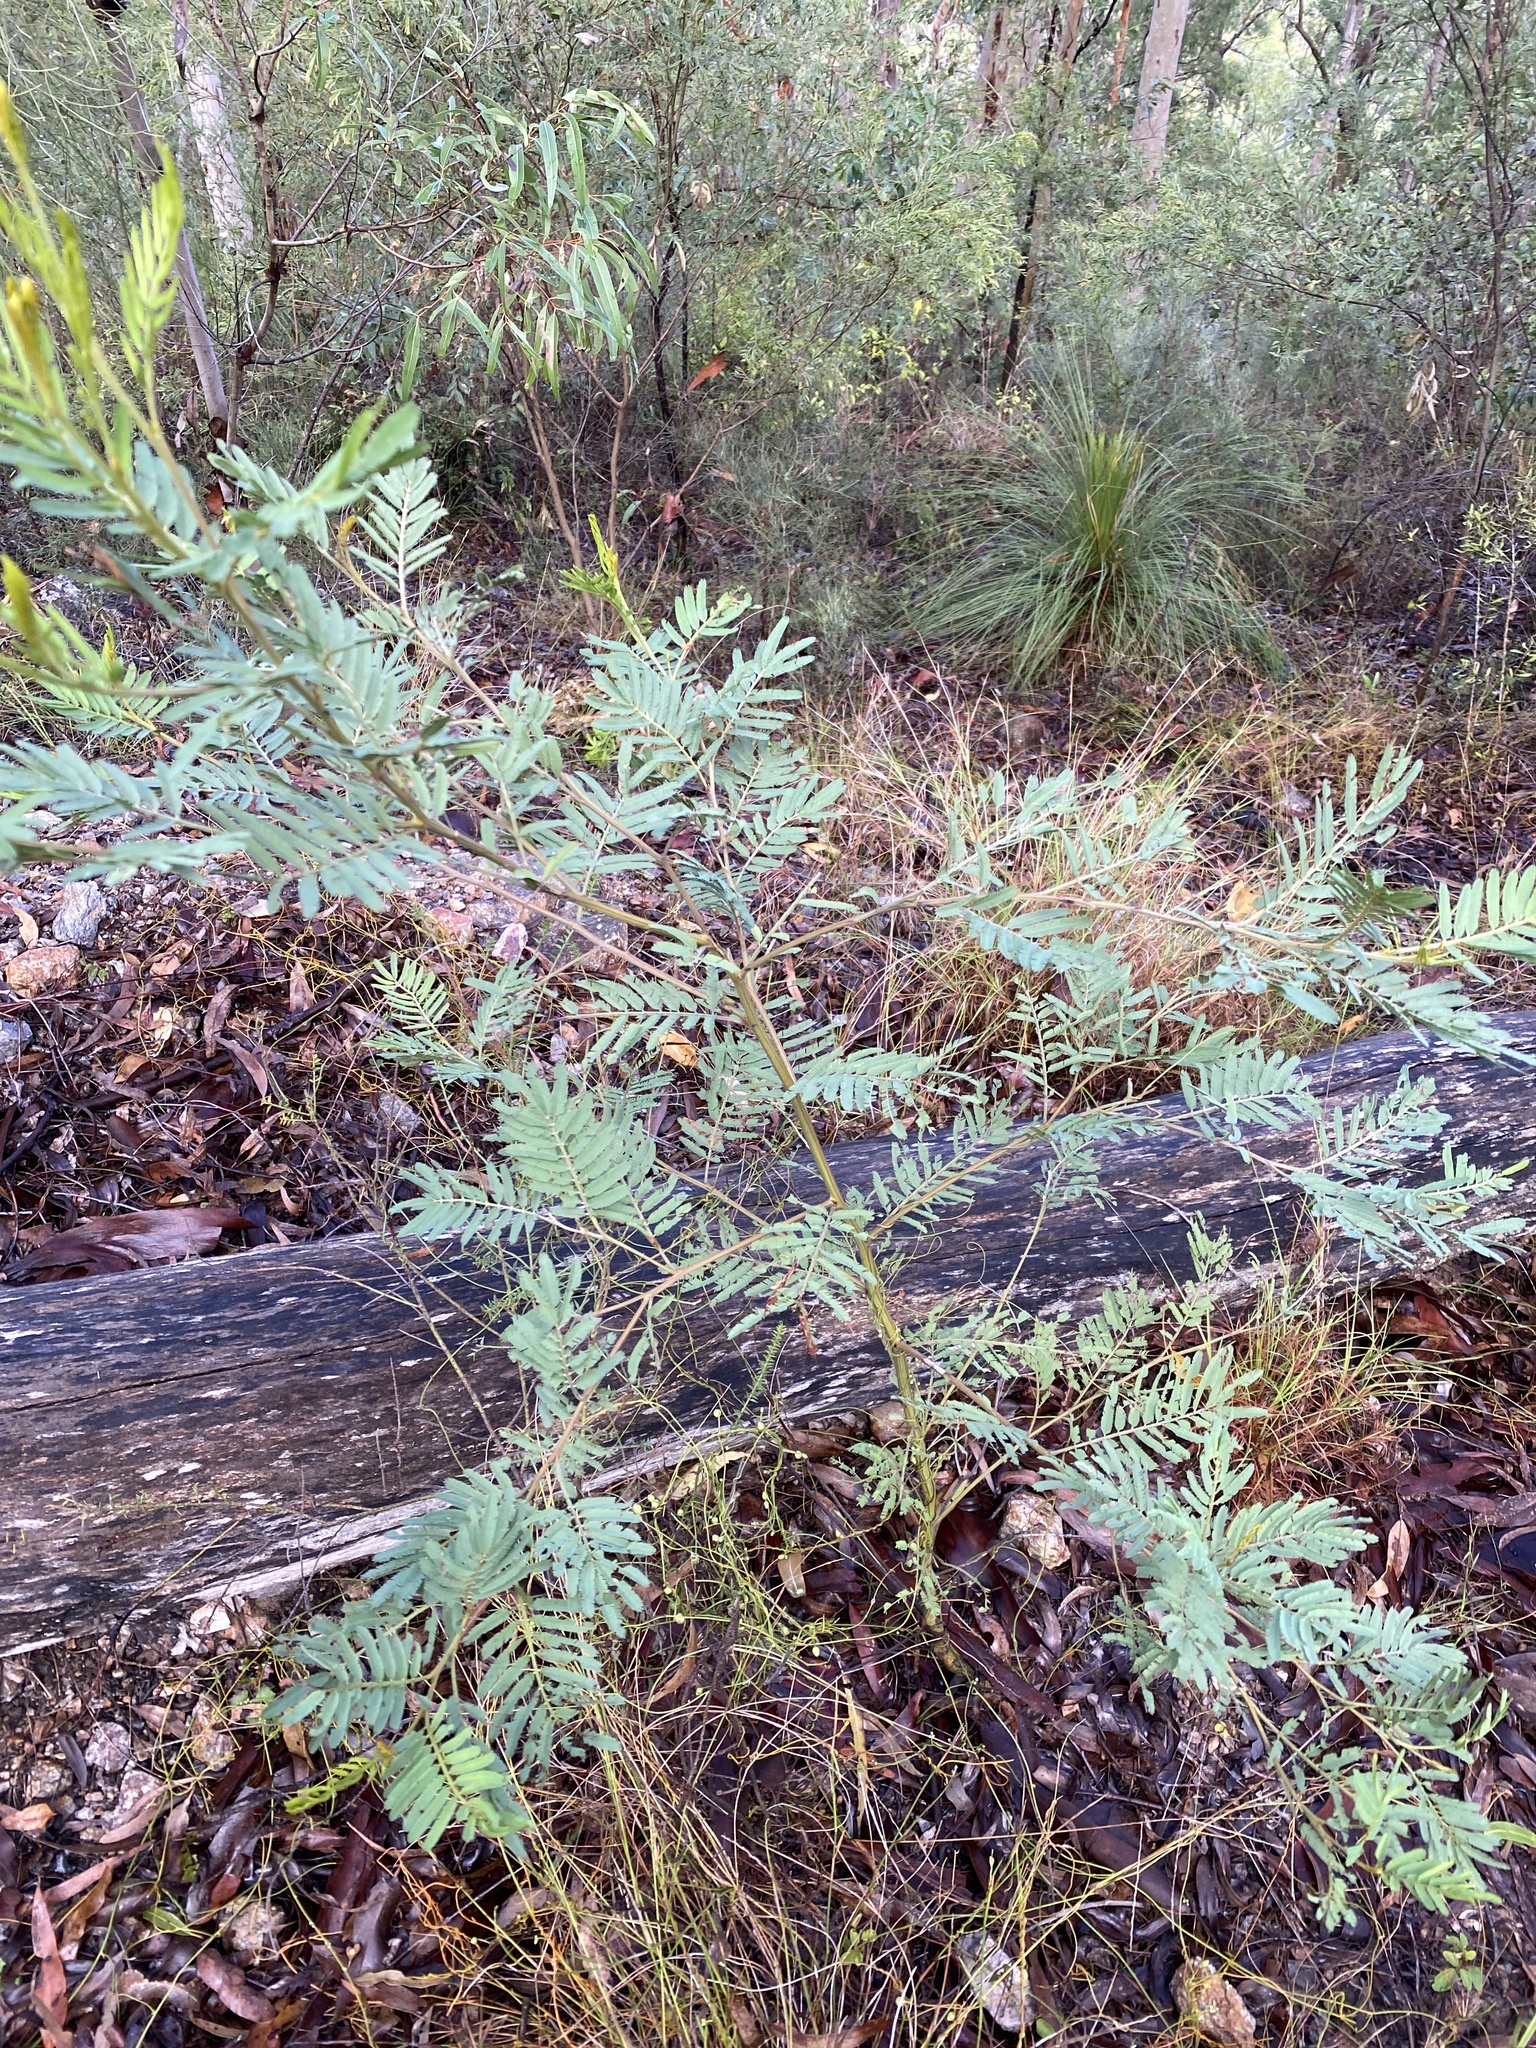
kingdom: Plantae
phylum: Tracheophyta
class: Magnoliopsida
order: Fabales
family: Fabaceae
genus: Acacia
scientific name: Acacia irrorata
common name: Green wattle
